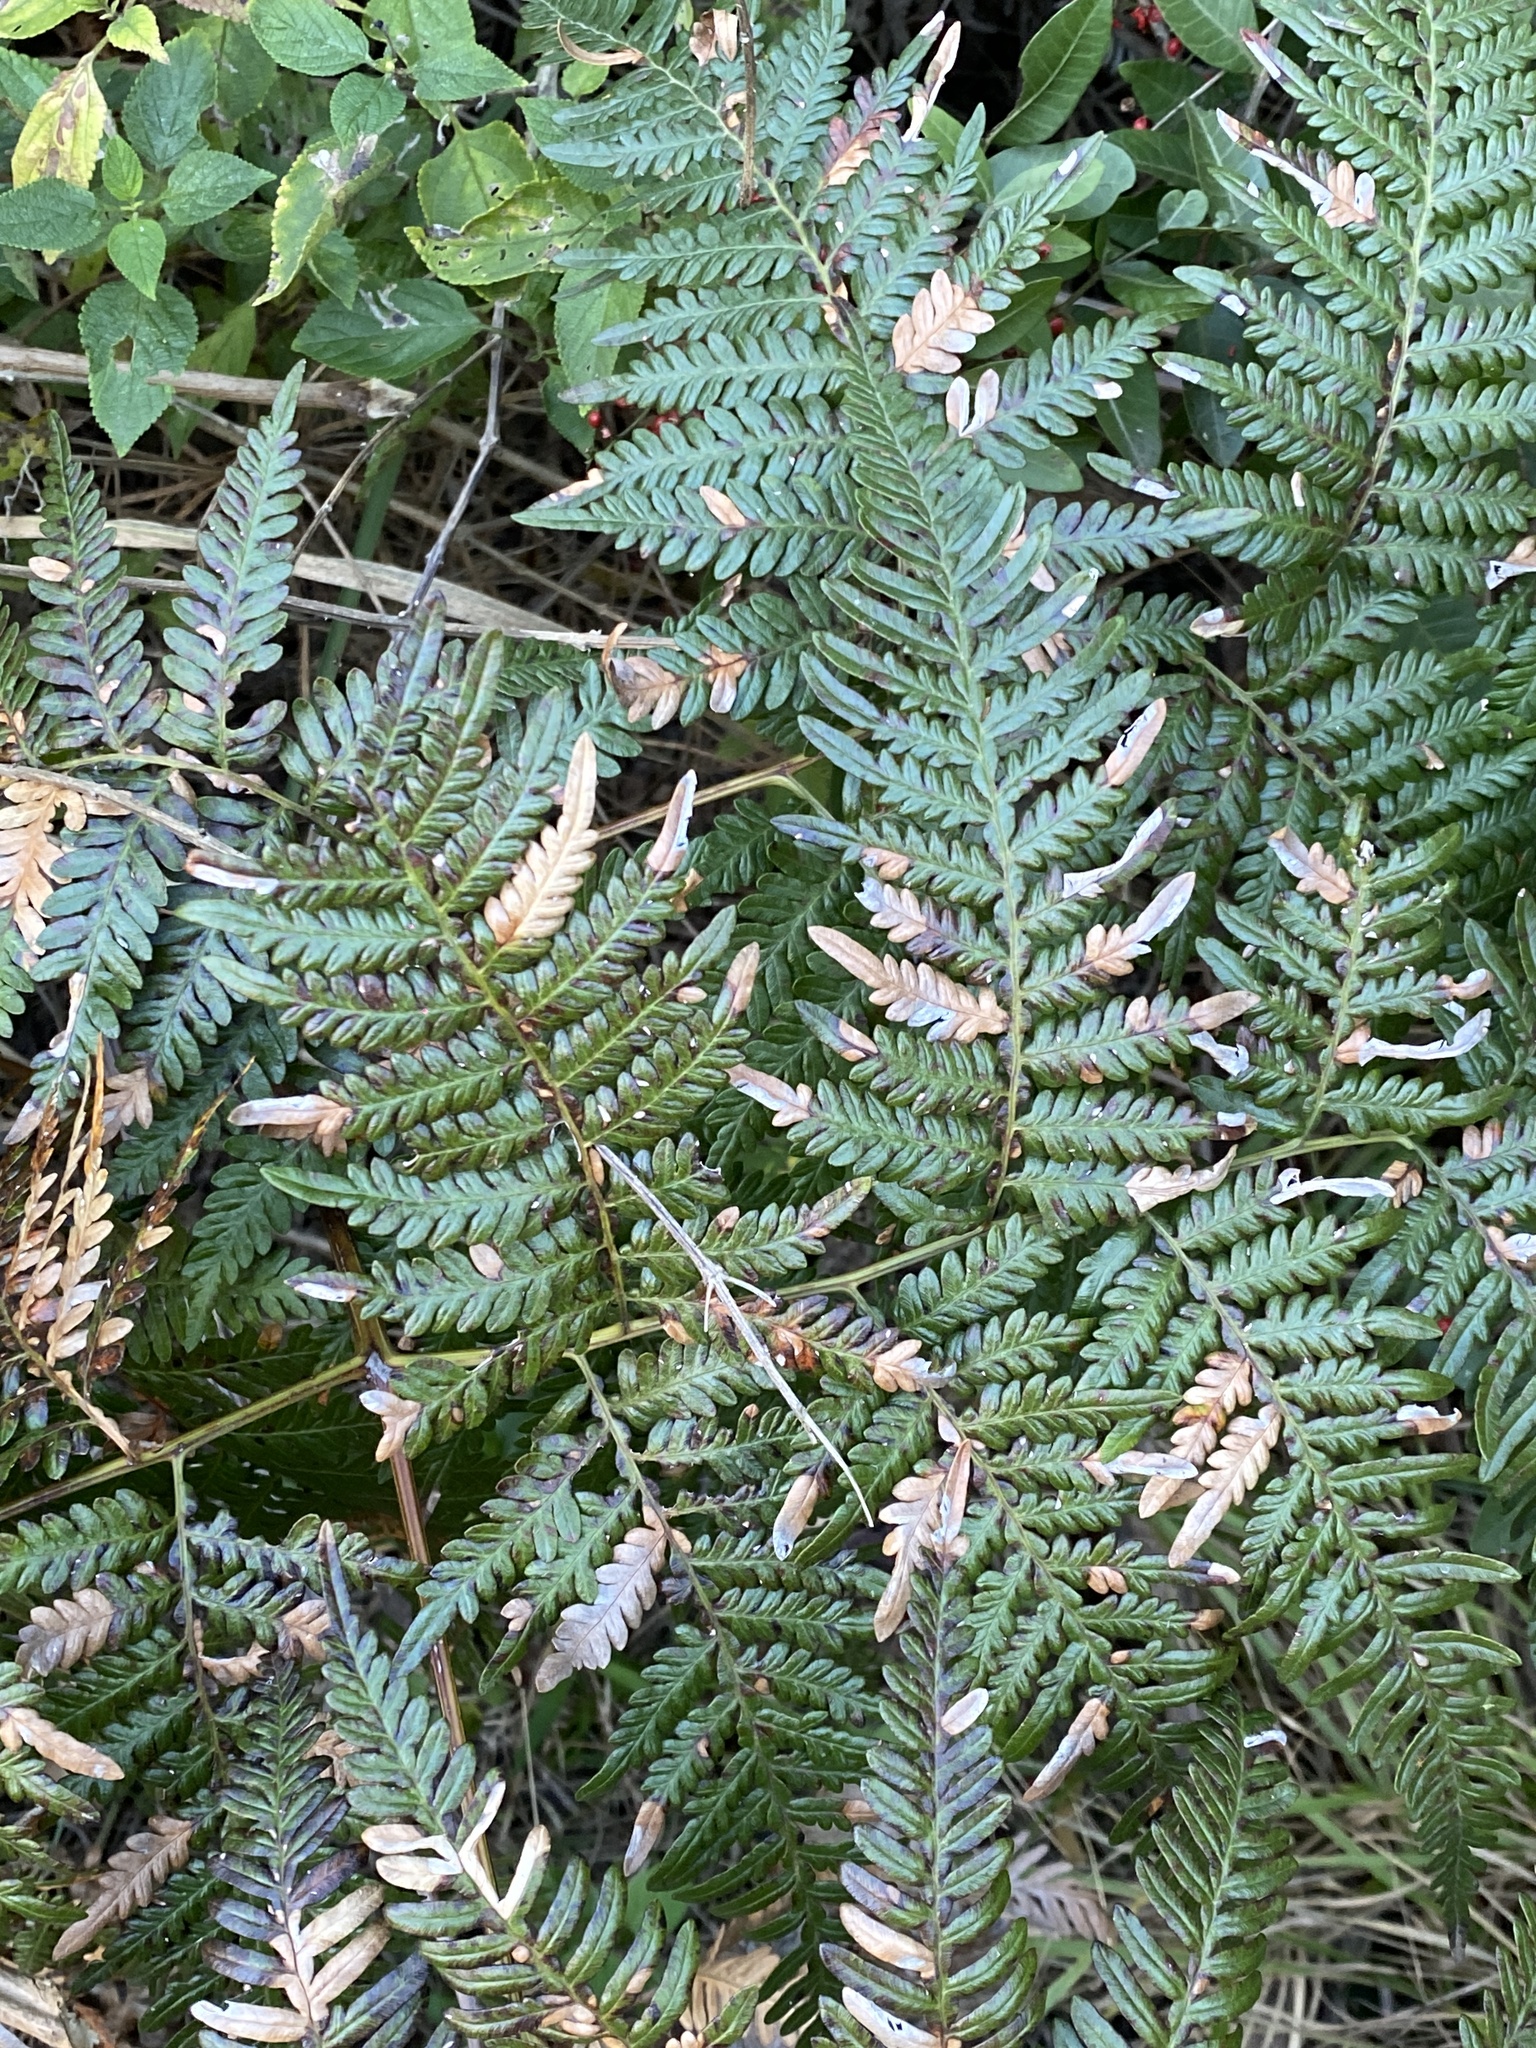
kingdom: Plantae
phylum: Tracheophyta
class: Polypodiopsida
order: Polypodiales
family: Dennstaedtiaceae
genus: Pteridium
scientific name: Pteridium esculentum
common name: Bracken fern
